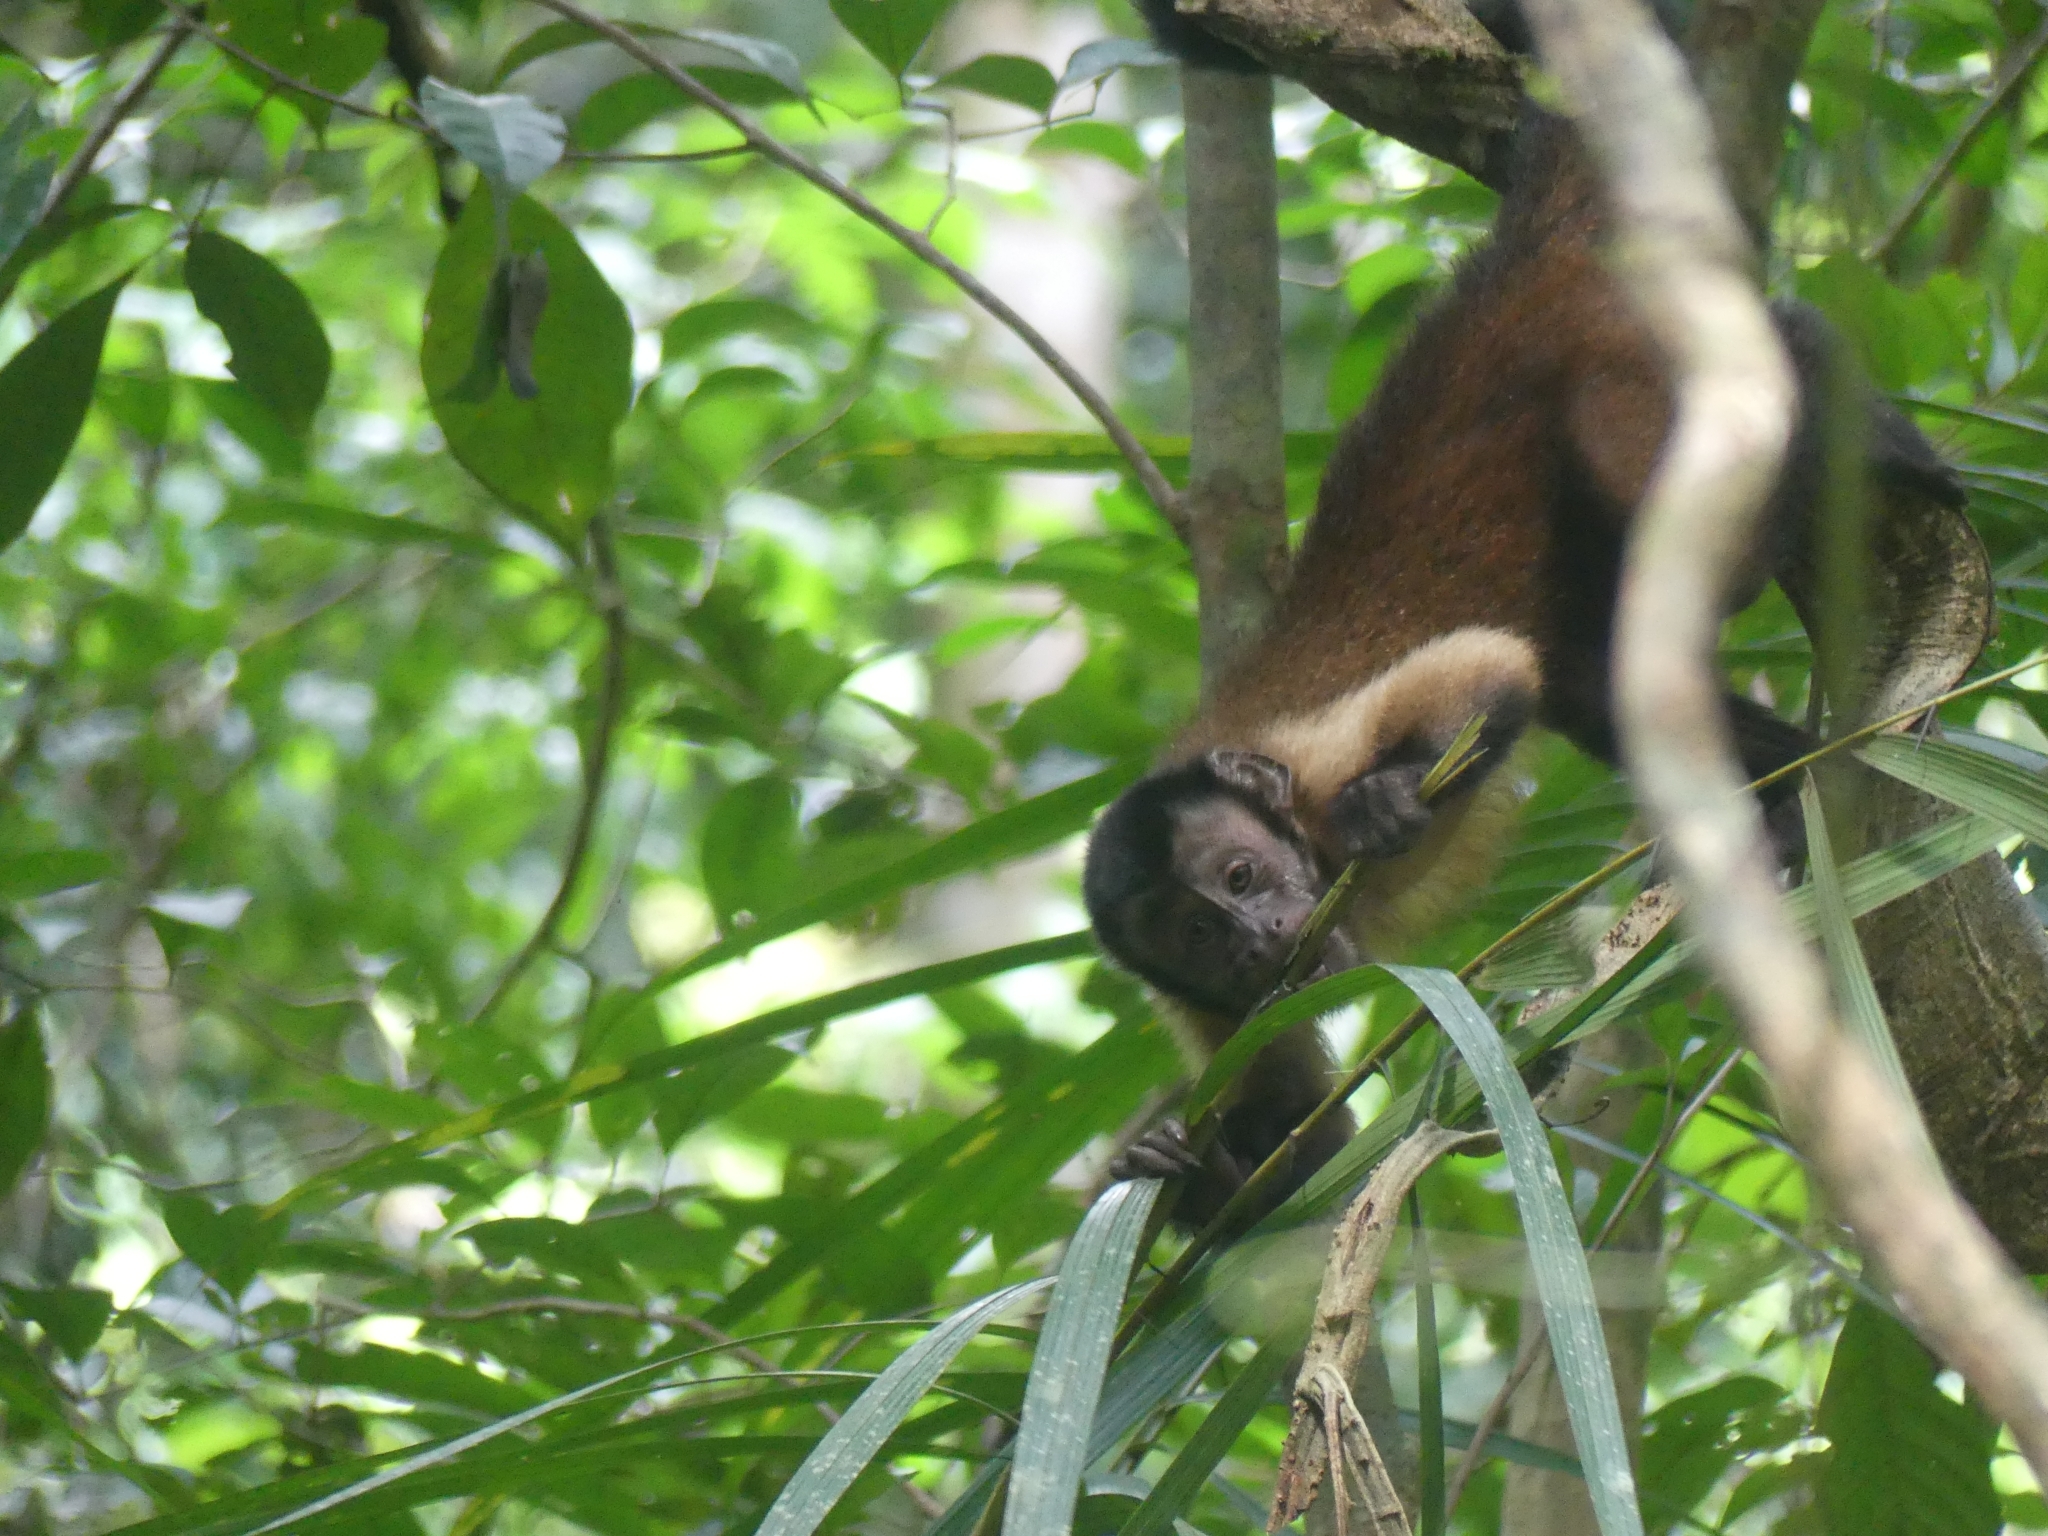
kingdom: Animalia
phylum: Chordata
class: Mammalia
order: Primates
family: Cebidae
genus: Sapajus
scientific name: Sapajus apella
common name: Tufted capuchin
